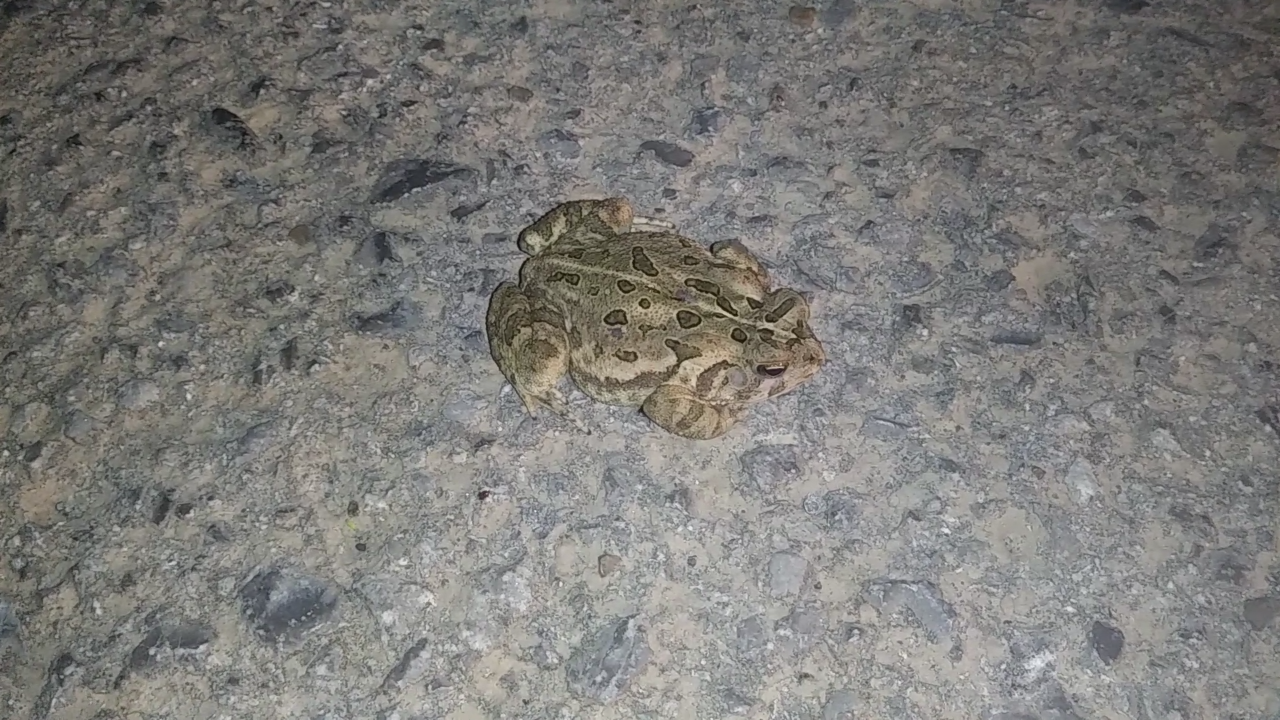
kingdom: Animalia
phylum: Chordata
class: Amphibia
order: Anura
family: Bufonidae
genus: Anaxyrus
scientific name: Anaxyrus fowleri
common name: Fowler's toad
